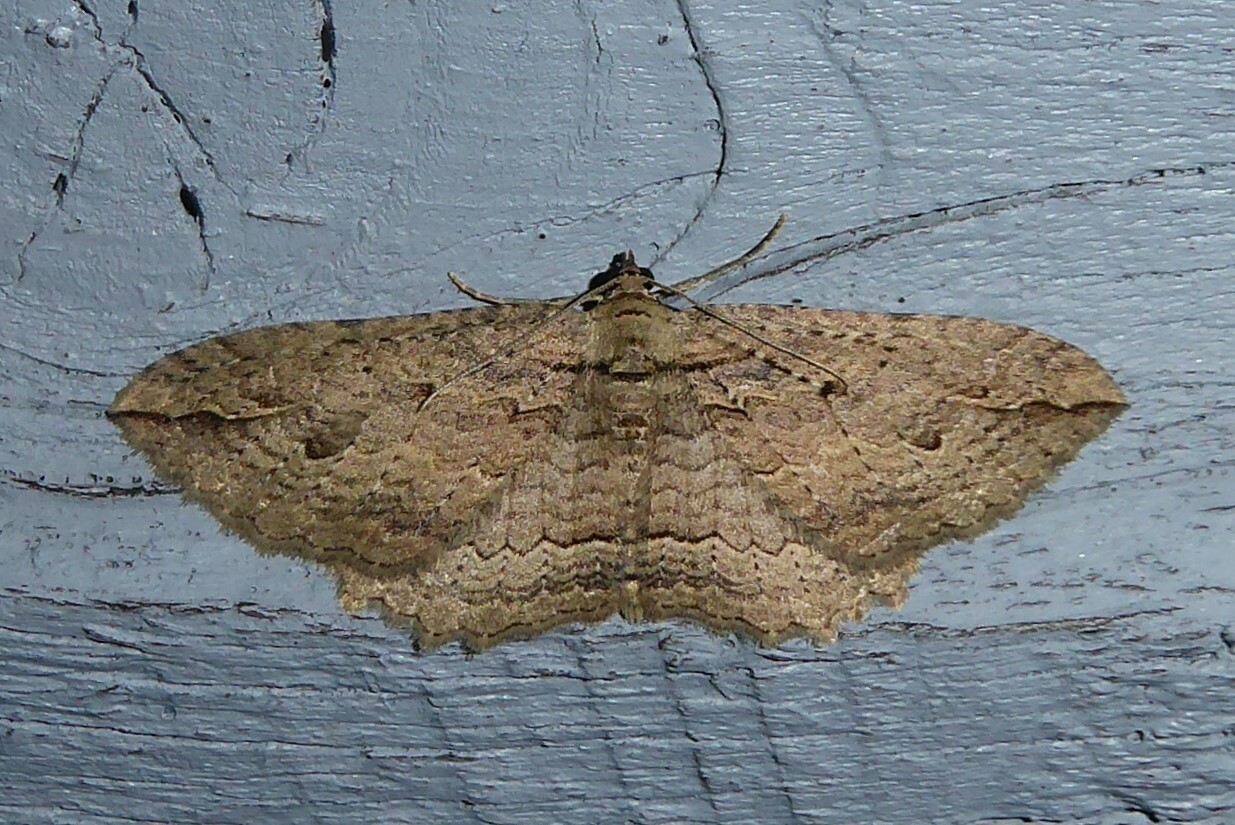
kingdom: Animalia
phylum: Arthropoda
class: Insecta
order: Lepidoptera
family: Geometridae
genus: Austrocidaria
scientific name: Austrocidaria bipartita
